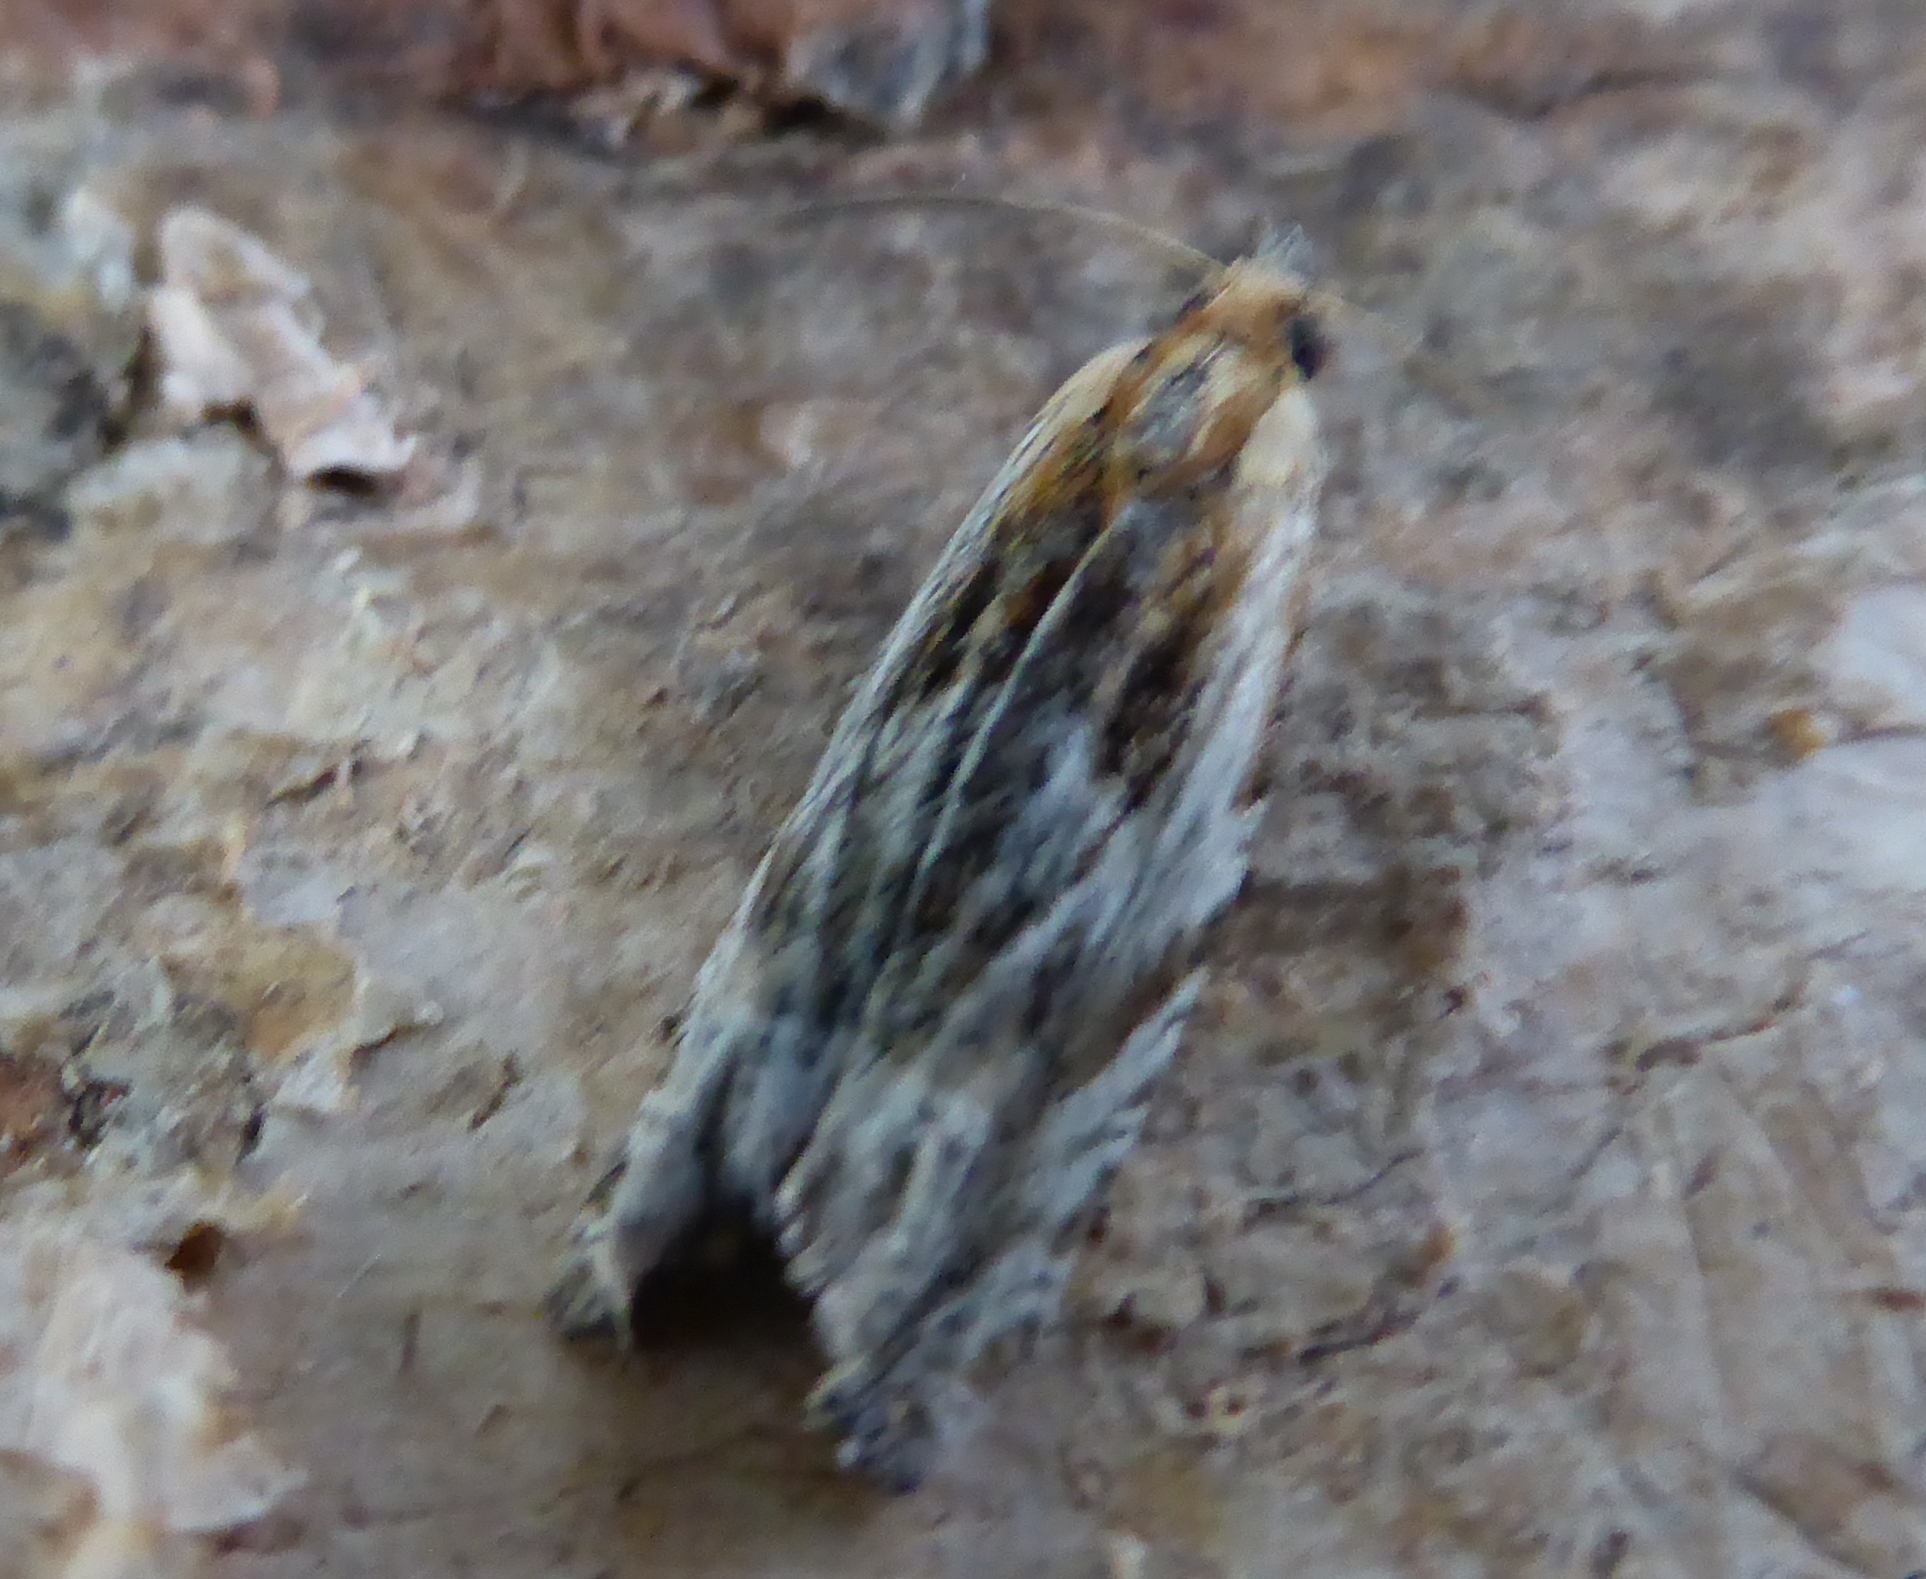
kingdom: Animalia
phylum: Arthropoda
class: Insecta
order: Lepidoptera
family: Tortricidae
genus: Eucosma
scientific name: Eucosma cana
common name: Hoary belle
